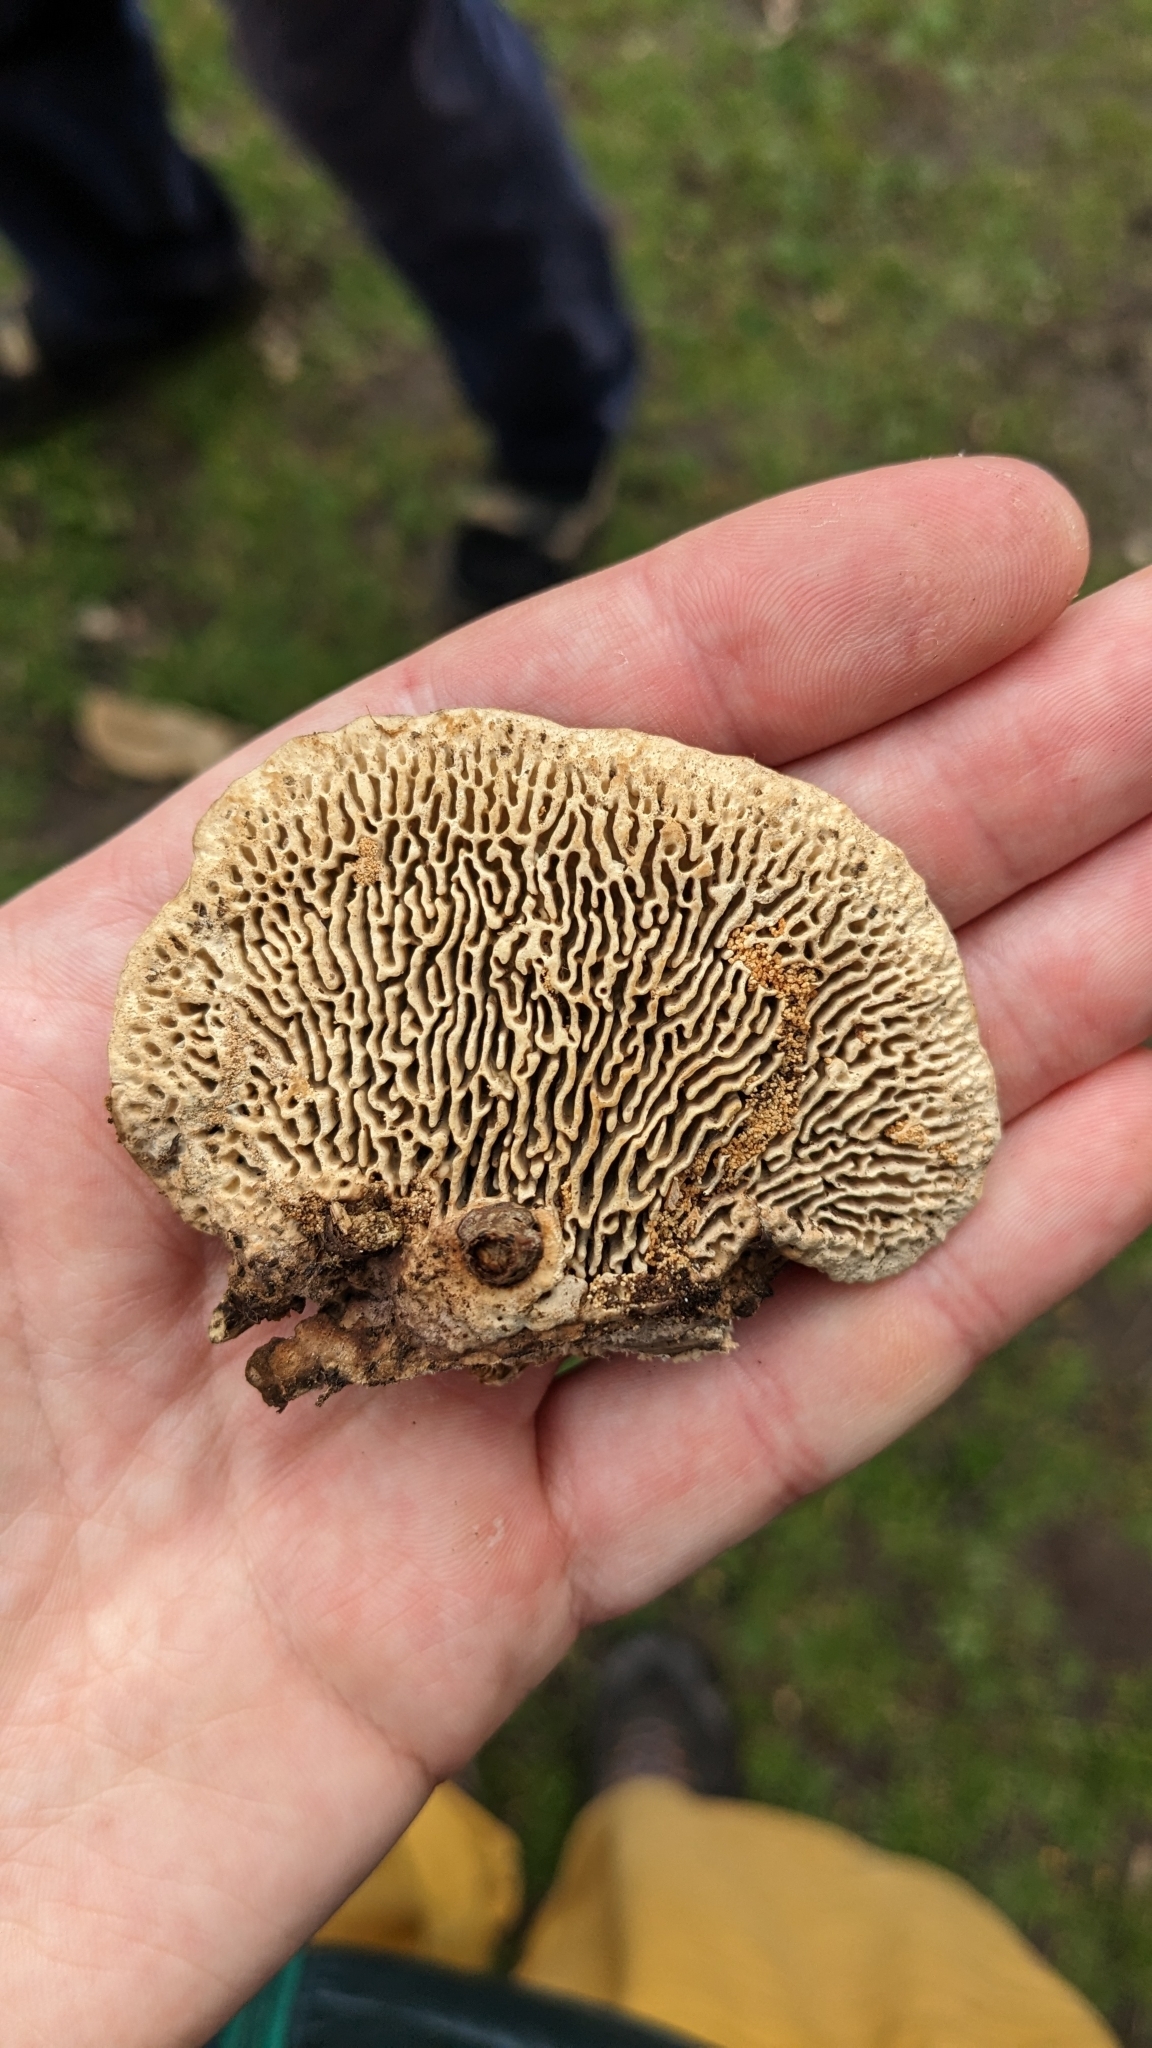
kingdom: Fungi
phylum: Basidiomycota
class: Agaricomycetes
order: Polyporales
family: Fomitopsidaceae
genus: Fomitopsis
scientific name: Fomitopsis
